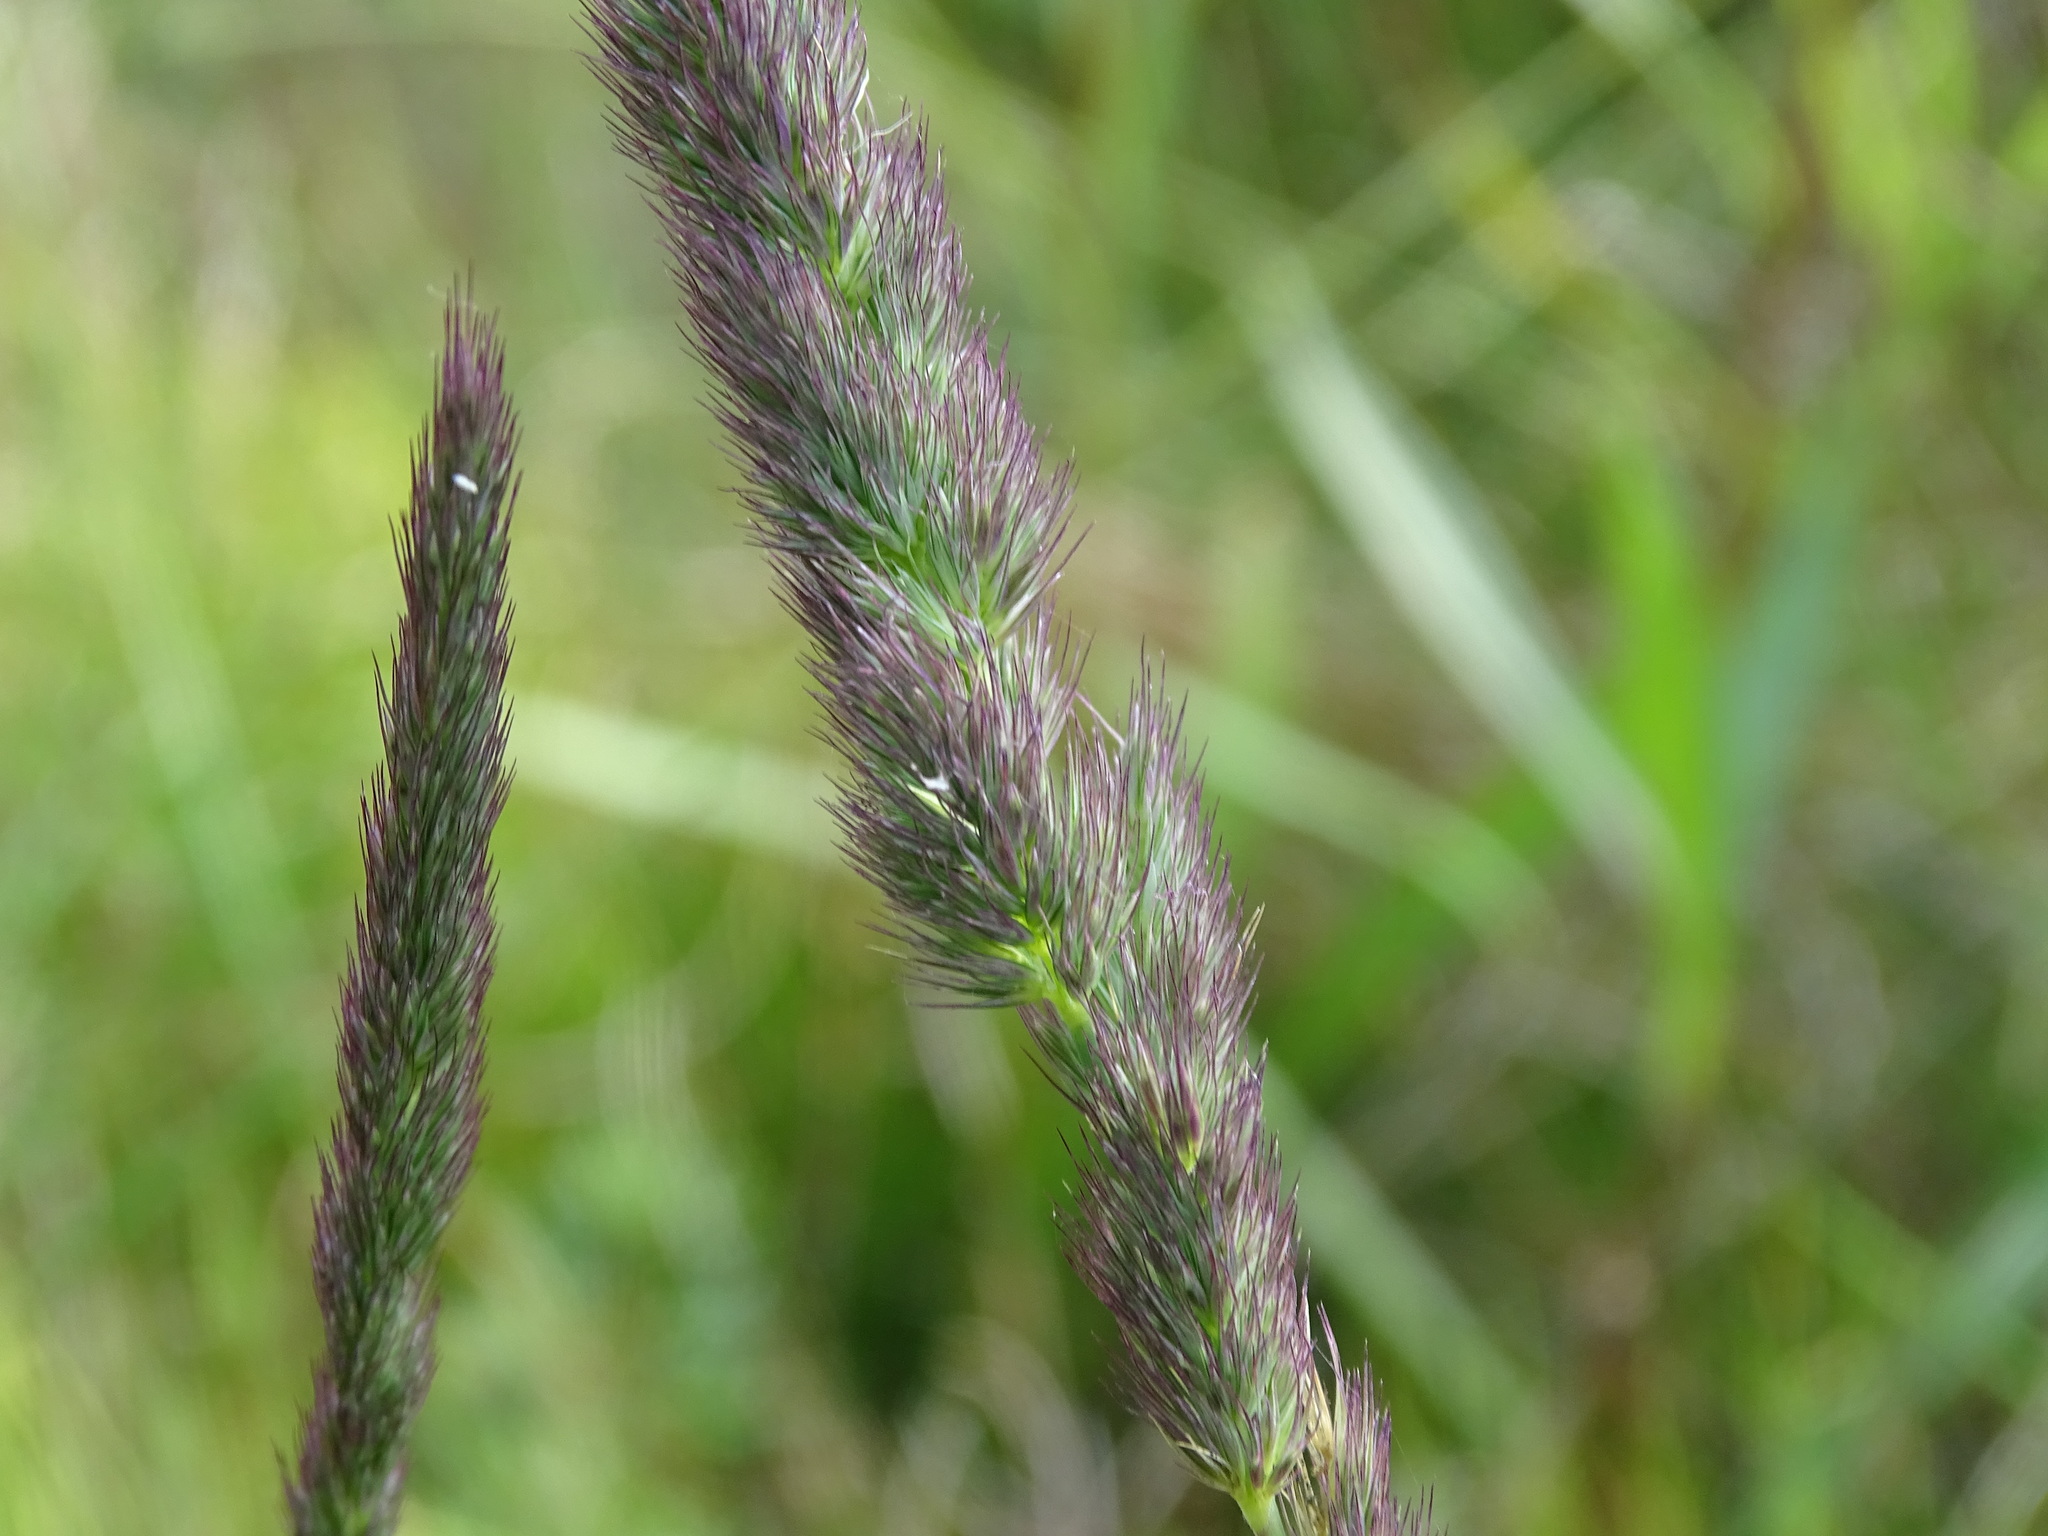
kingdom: Plantae
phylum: Tracheophyta
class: Liliopsida
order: Poales
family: Poaceae
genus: Muhlenbergia
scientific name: Muhlenbergia glomerata
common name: Bog muhly
